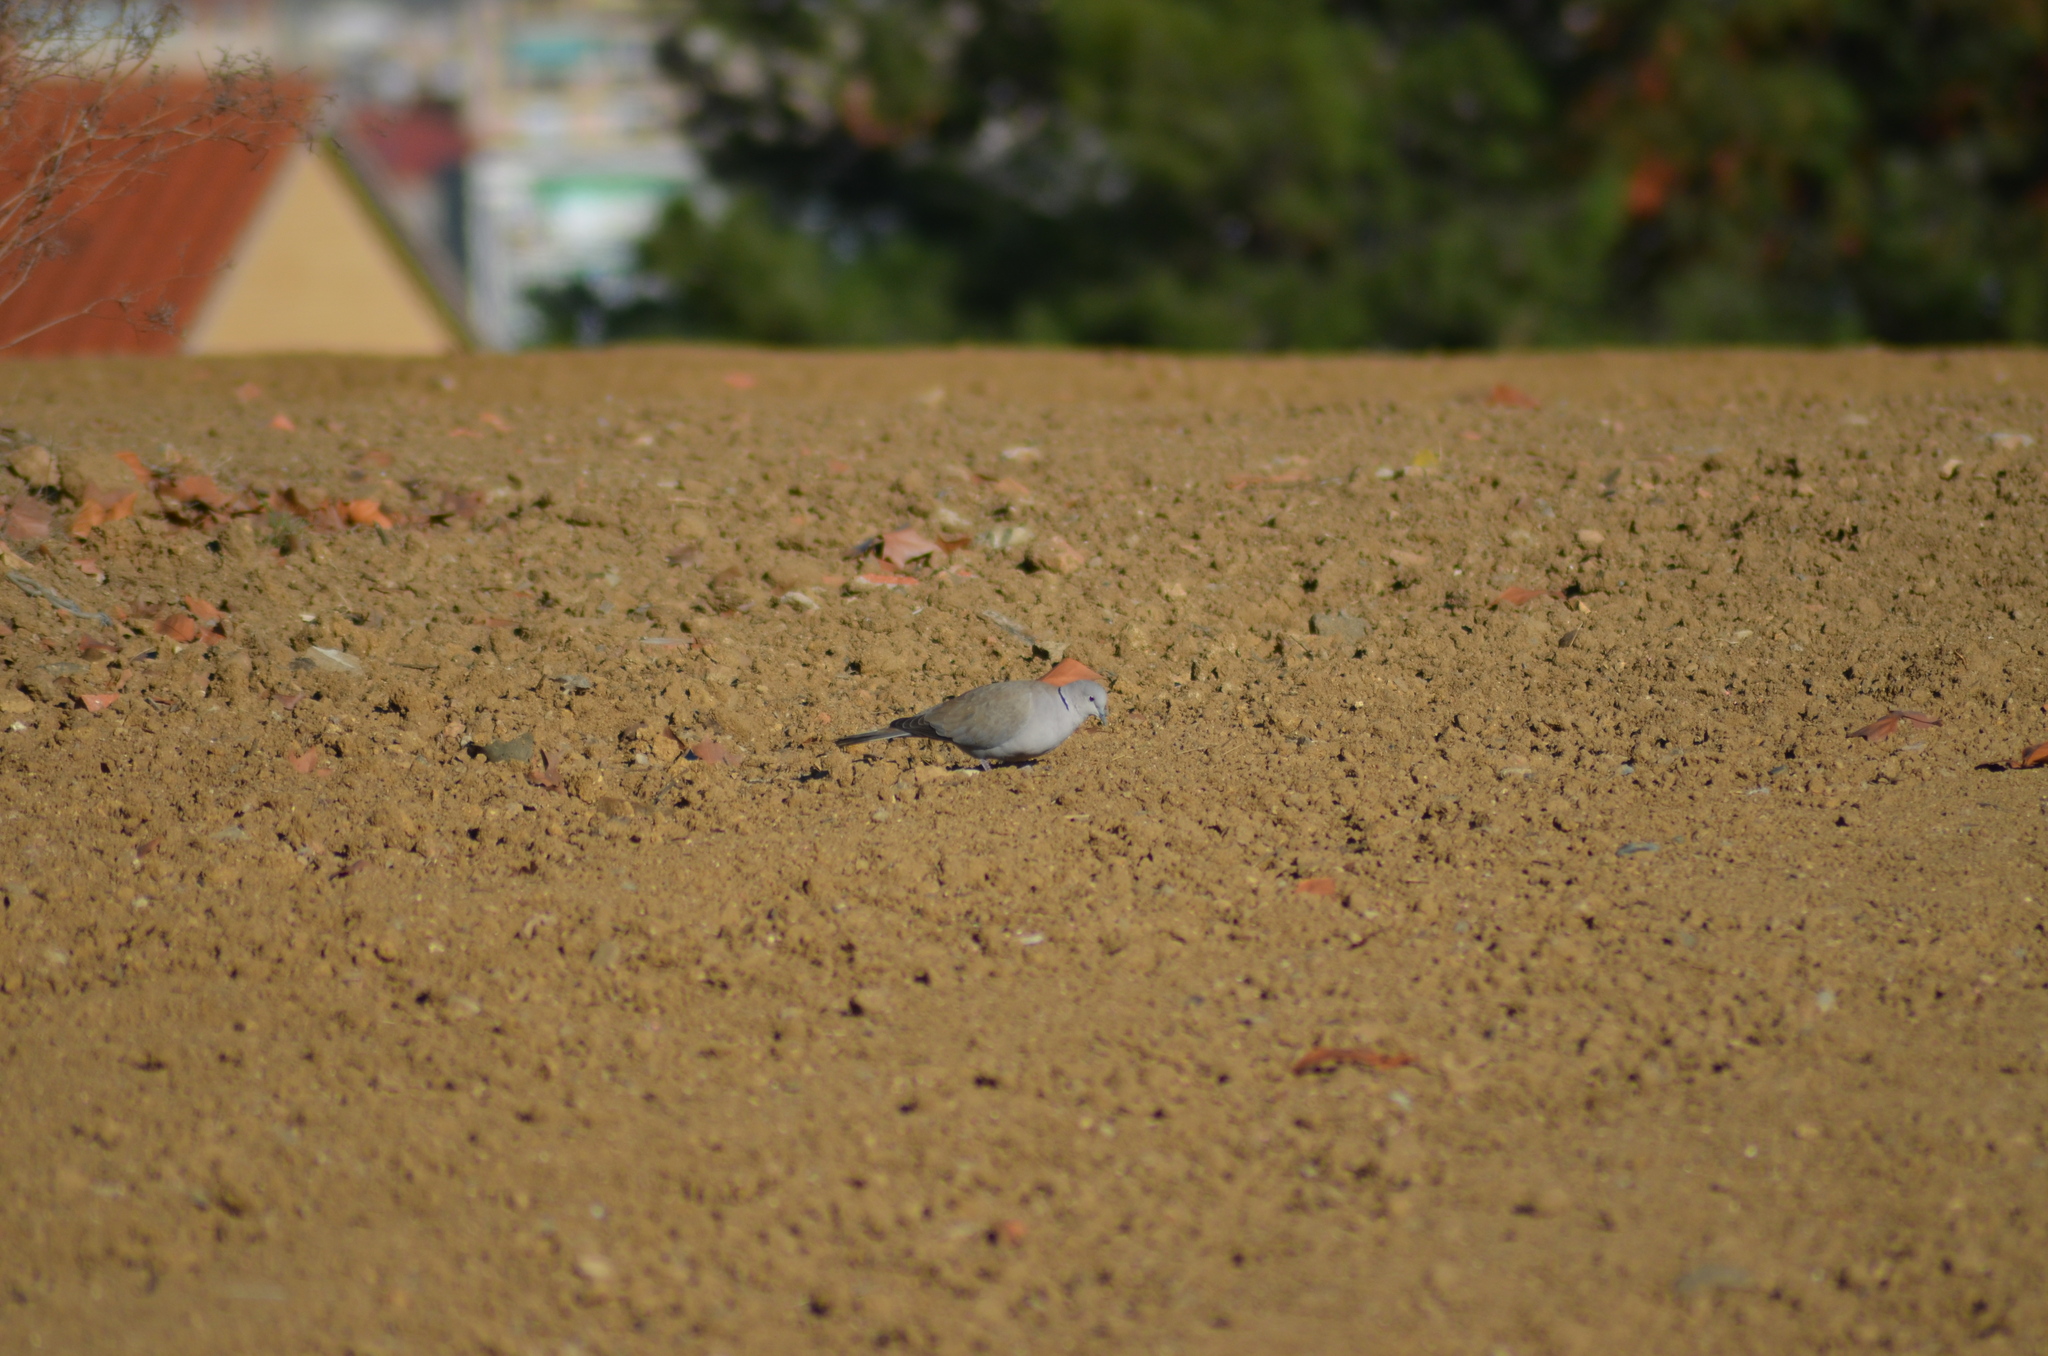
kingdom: Animalia
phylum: Chordata
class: Aves
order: Columbiformes
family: Columbidae
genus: Streptopelia
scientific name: Streptopelia decaocto
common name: Eurasian collared dove
